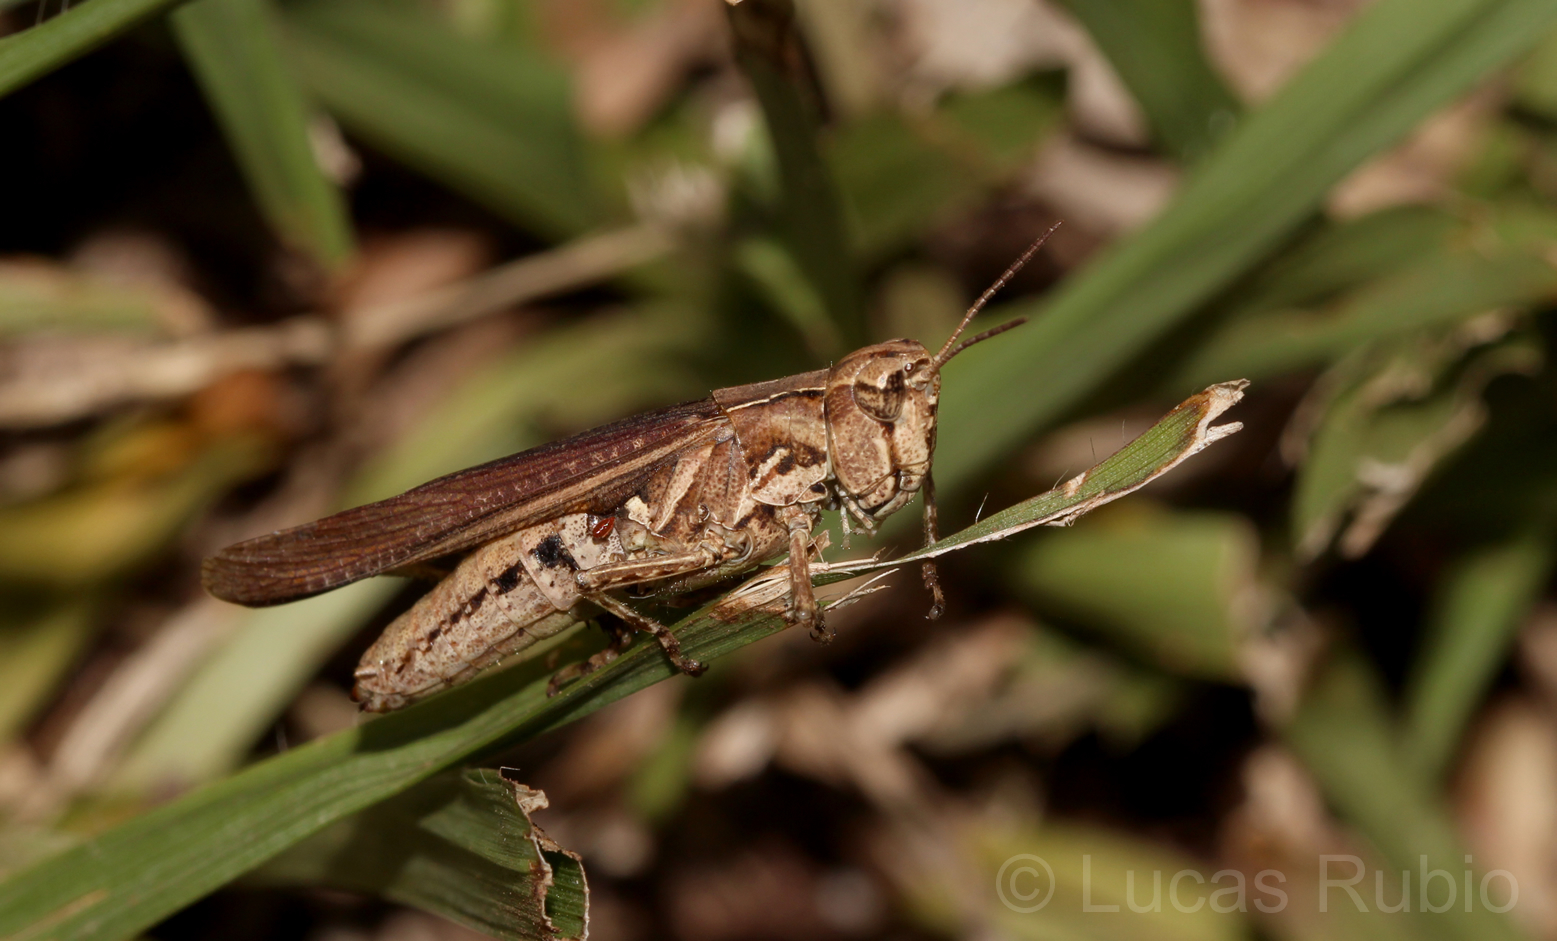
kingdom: Animalia
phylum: Arthropoda
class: Insecta
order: Orthoptera
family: Acrididae
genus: Orphulella
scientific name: Orphulella punctata
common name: Slant-faced grasshopper
